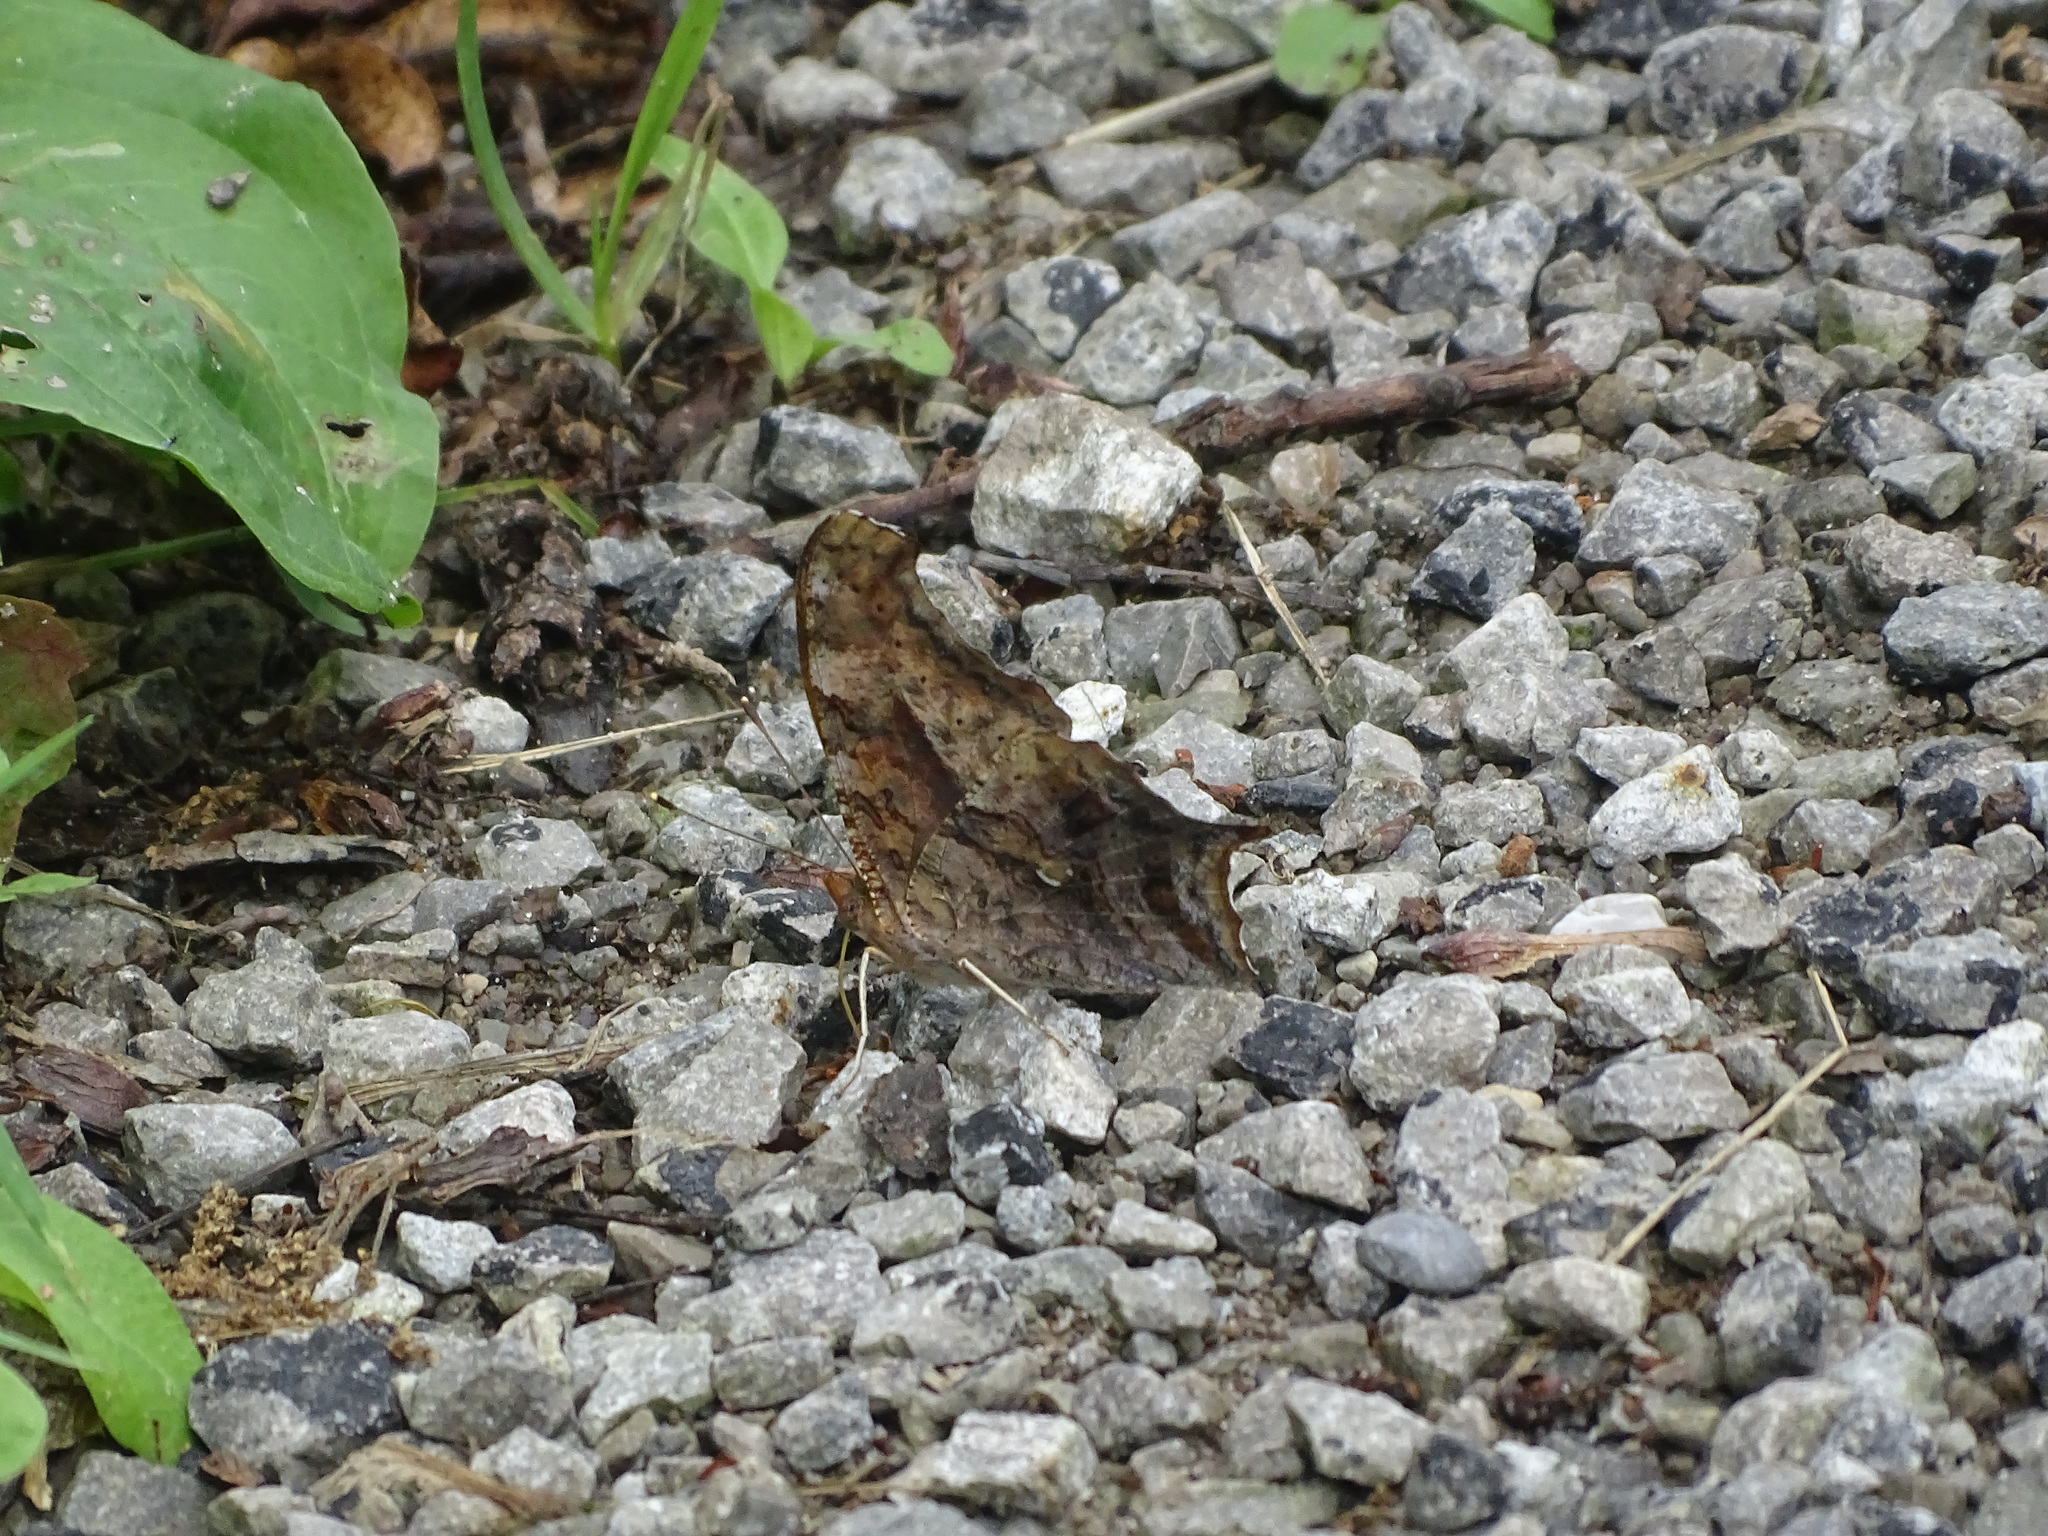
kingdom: Animalia
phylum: Arthropoda
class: Insecta
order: Lepidoptera
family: Nymphalidae
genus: Polygonia
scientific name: Polygonia interrogationis
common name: Question mark
